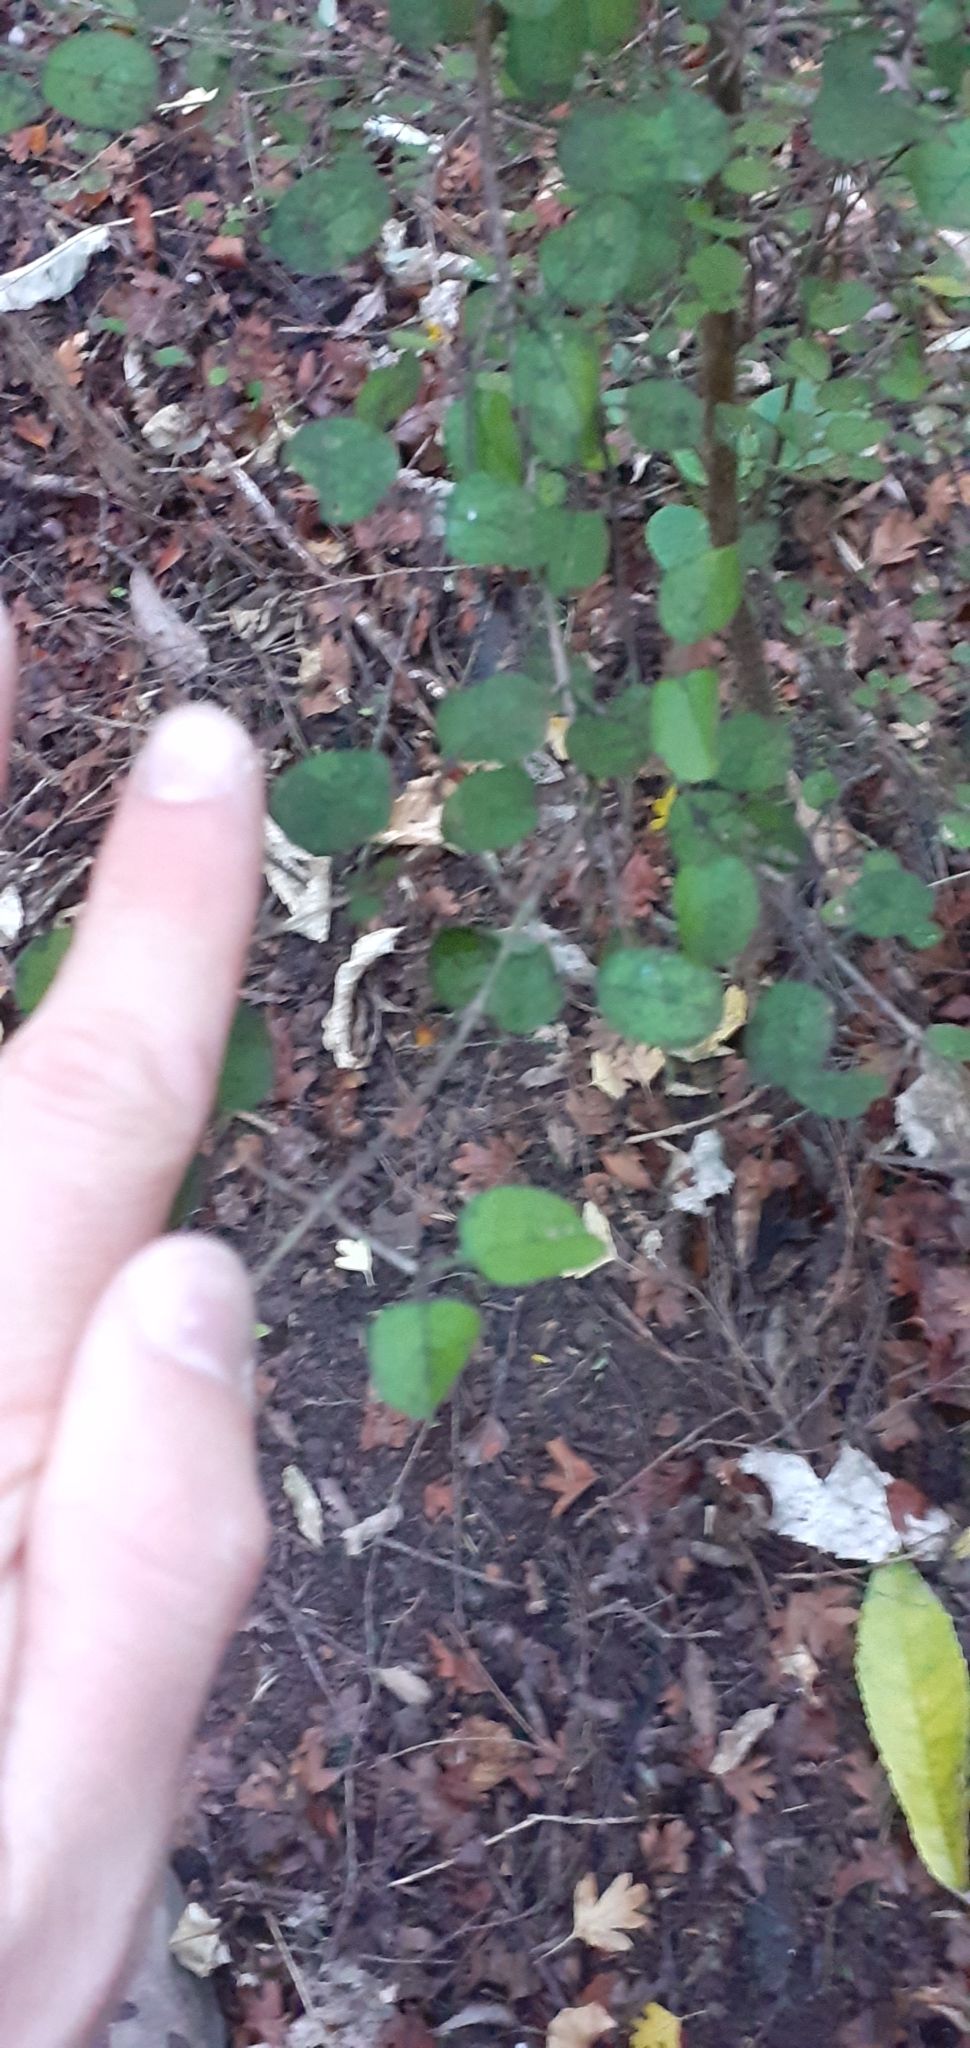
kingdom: Plantae
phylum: Tracheophyta
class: Magnoliopsida
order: Gentianales
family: Rubiaceae
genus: Coprosma
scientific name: Coprosma rotundifolia
